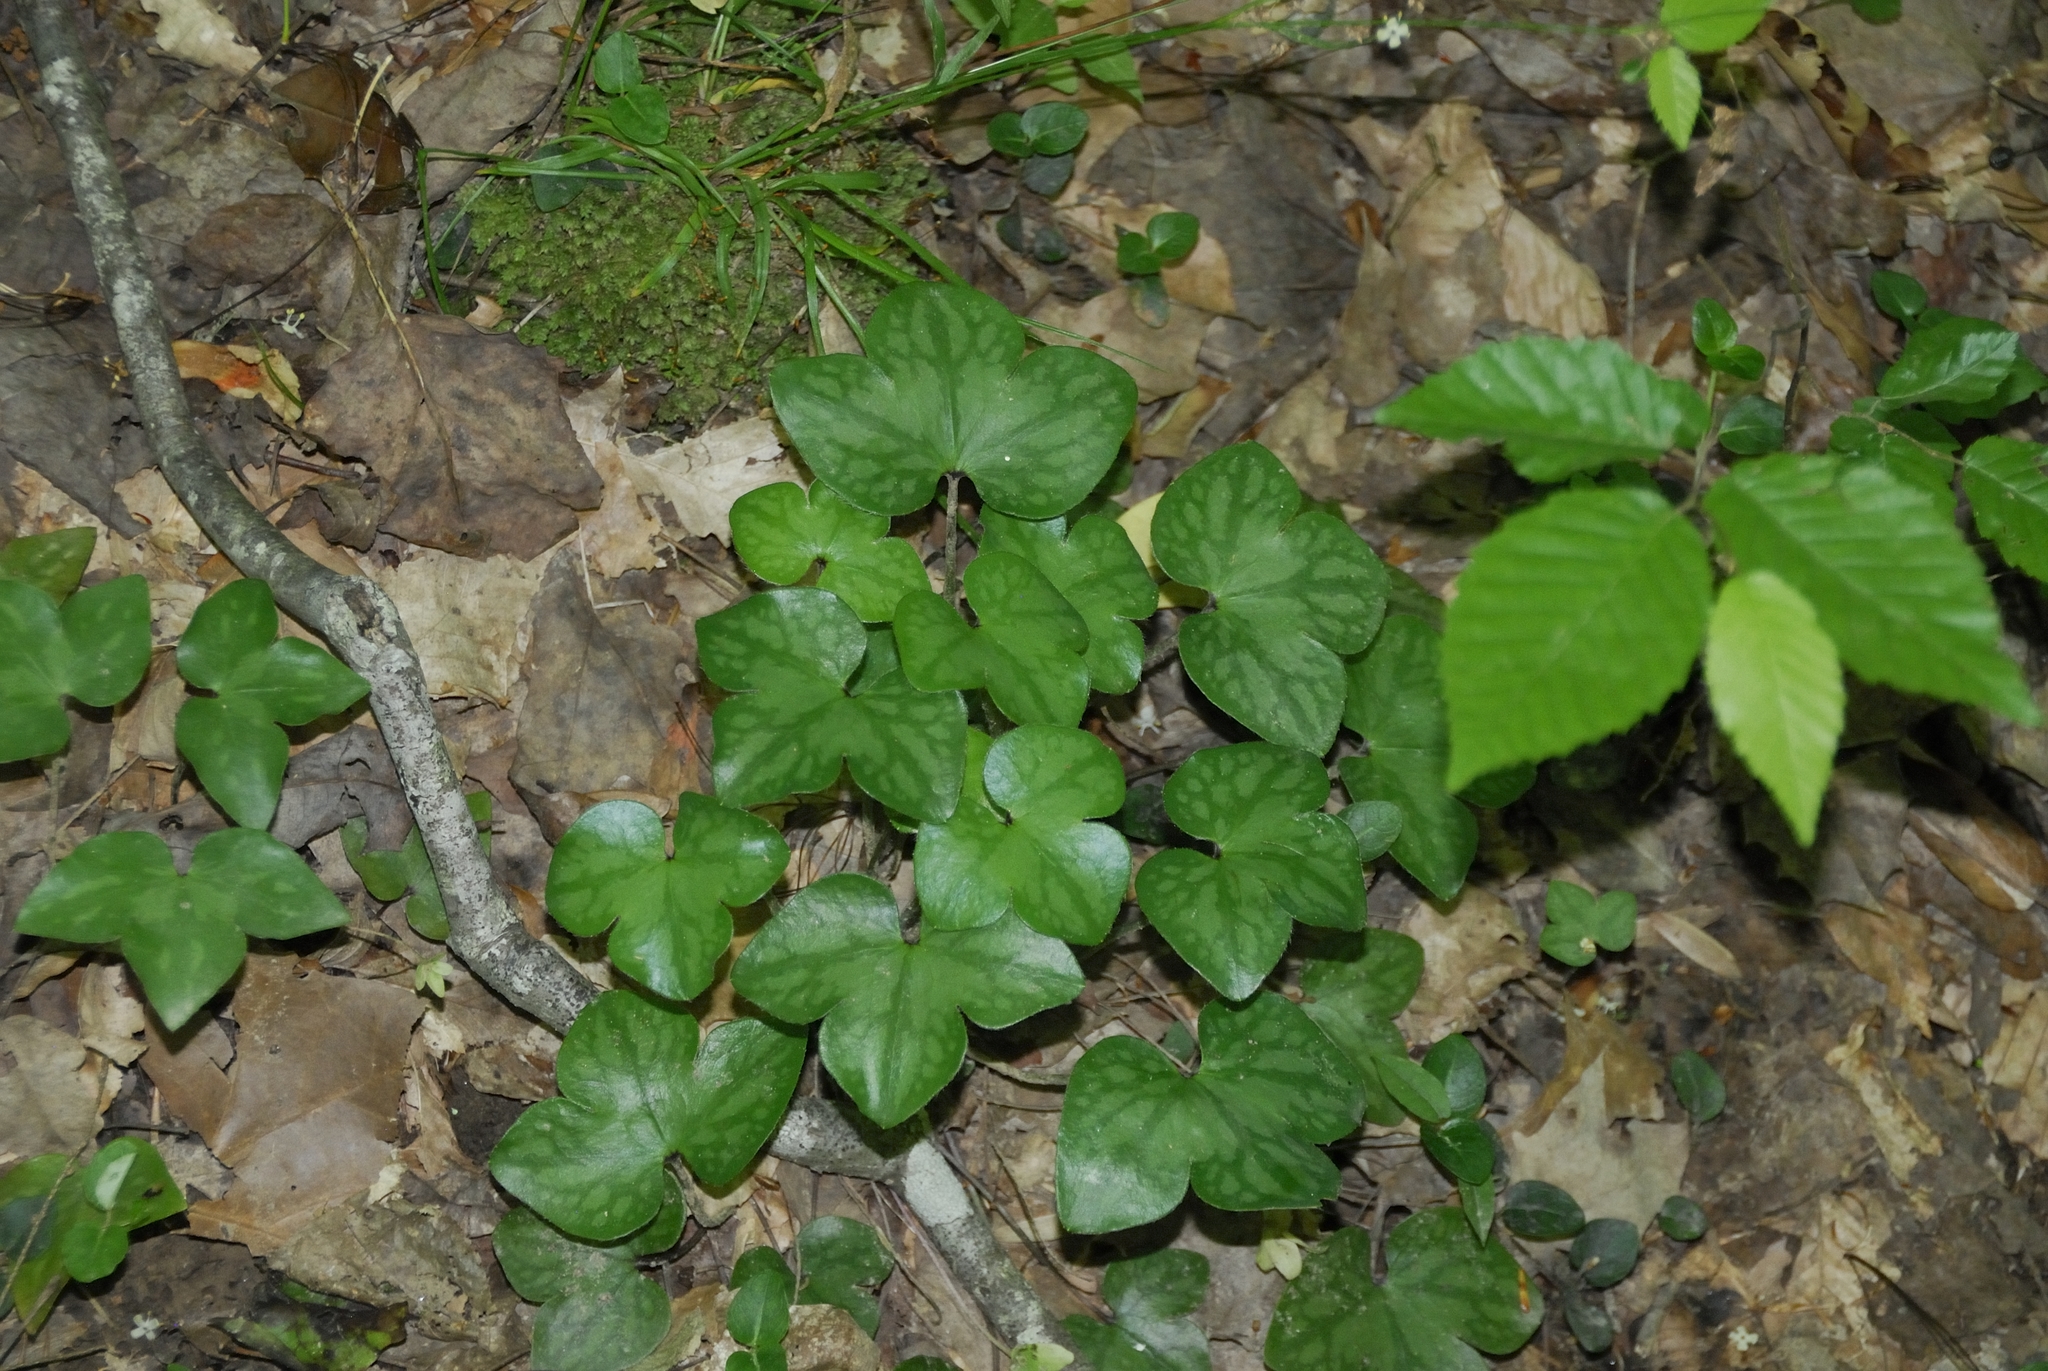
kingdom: Plantae
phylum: Tracheophyta
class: Magnoliopsida
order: Ranunculales
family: Ranunculaceae
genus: Hepatica
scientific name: Hepatica acutiloba
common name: Sharp-lobed hepatica
